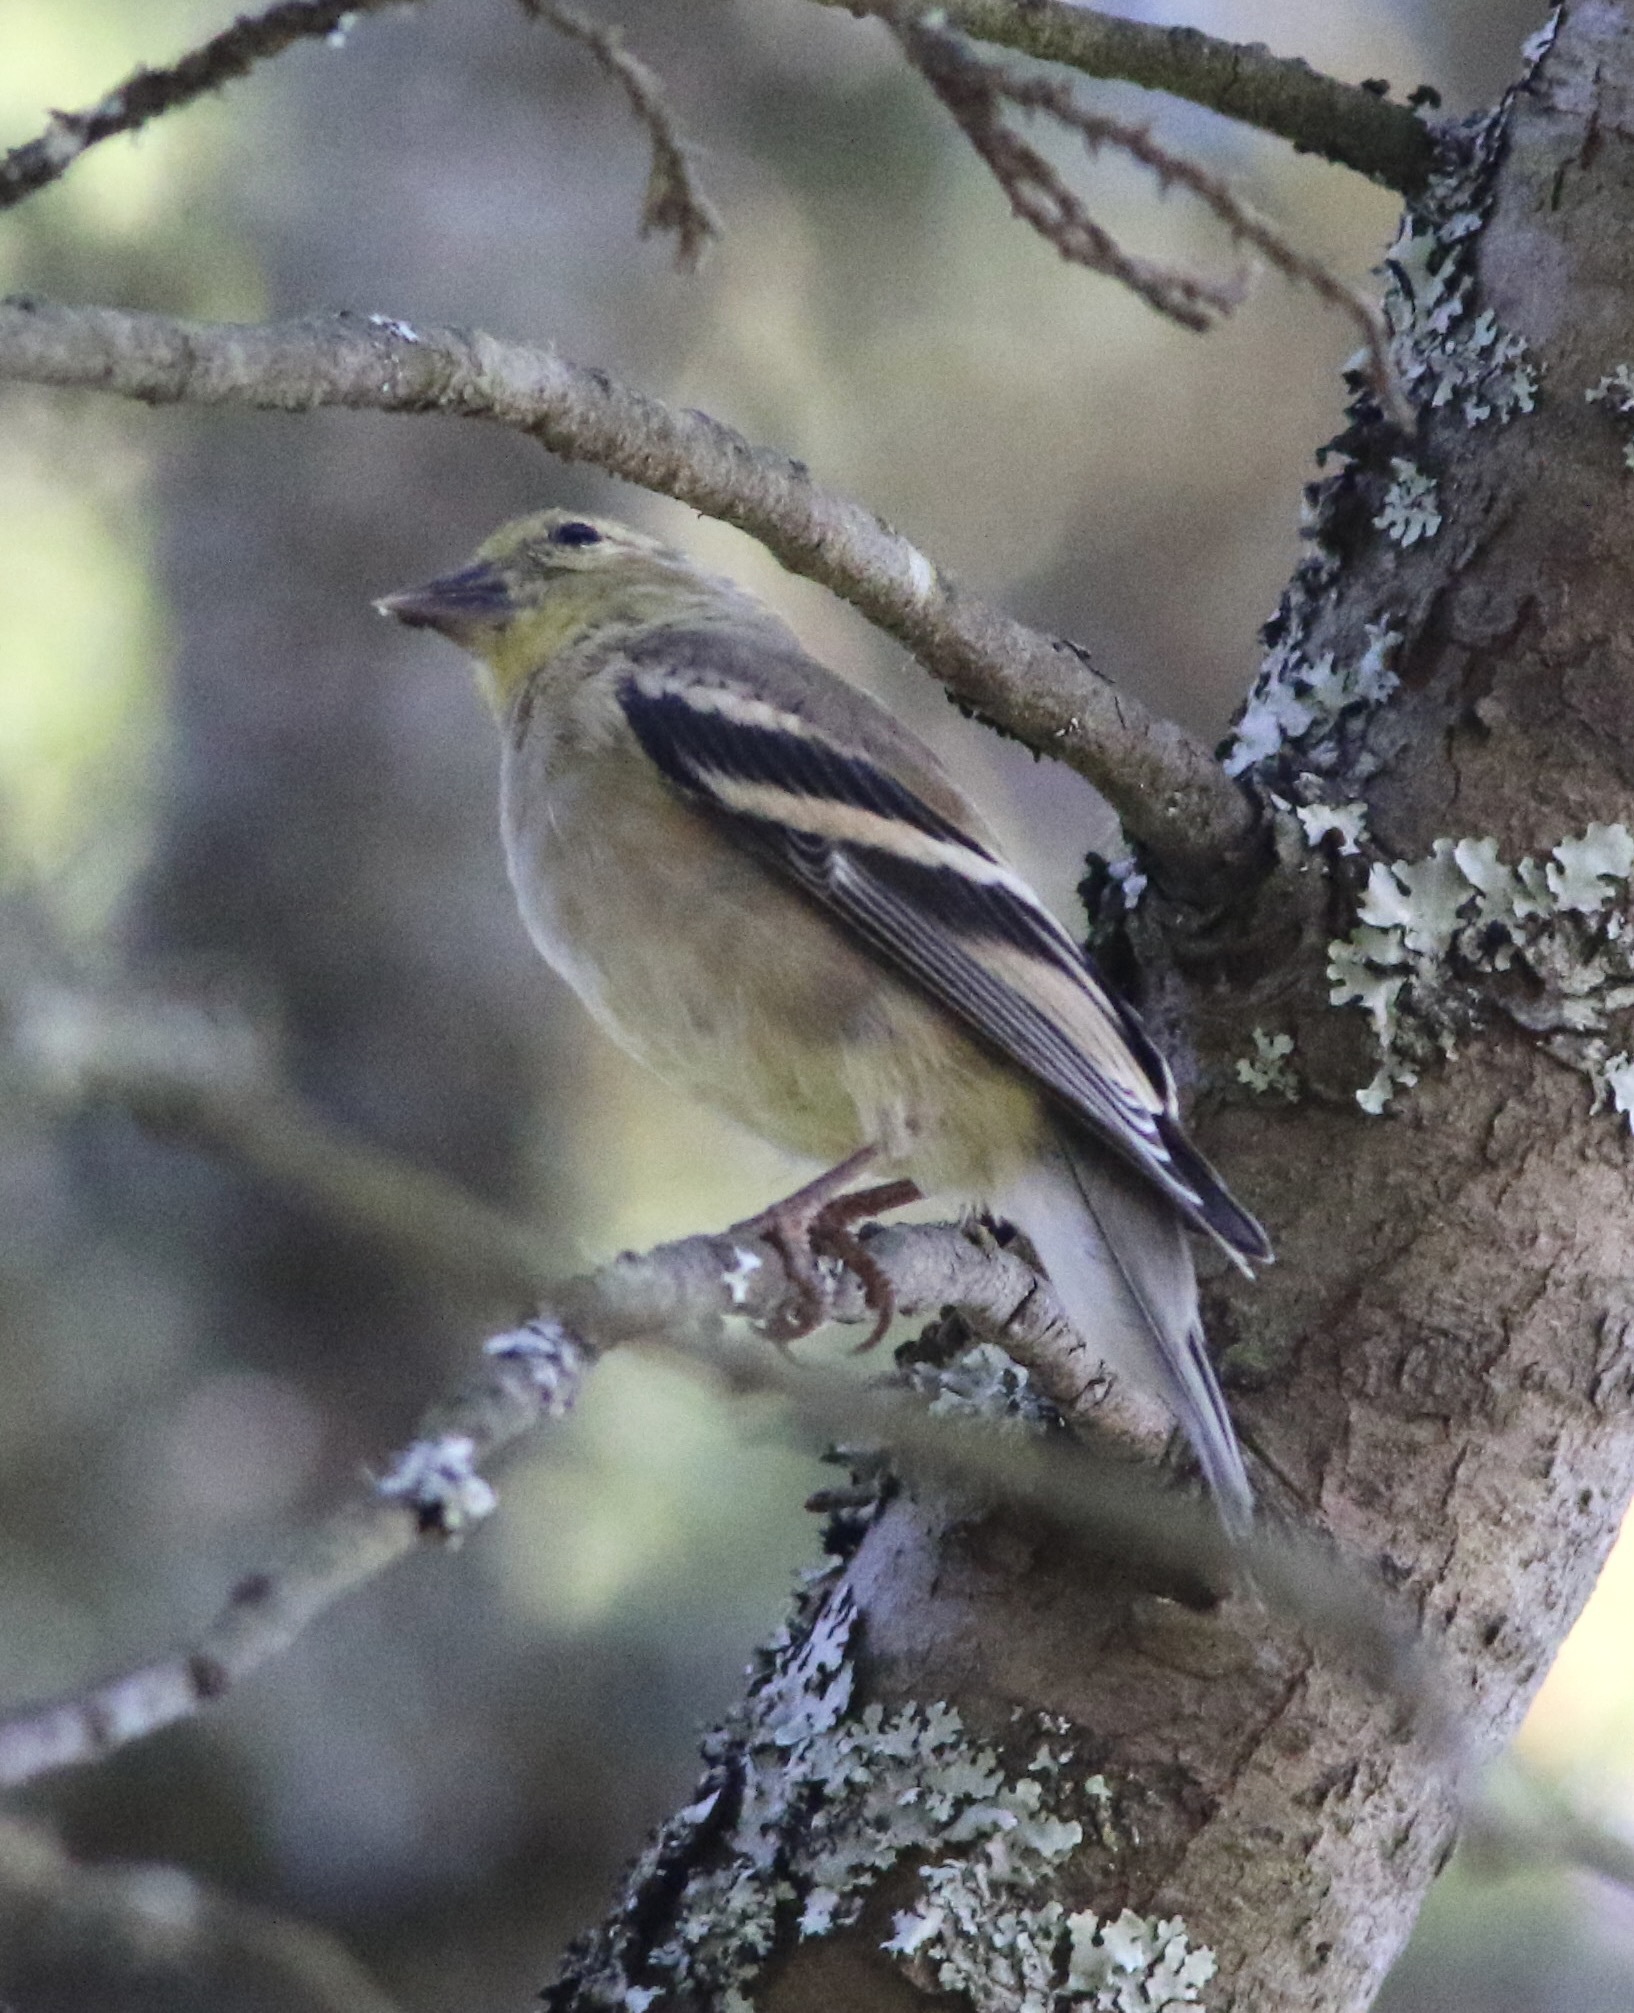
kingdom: Animalia
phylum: Chordata
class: Aves
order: Passeriformes
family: Fringillidae
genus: Spinus
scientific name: Spinus tristis
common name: American goldfinch
